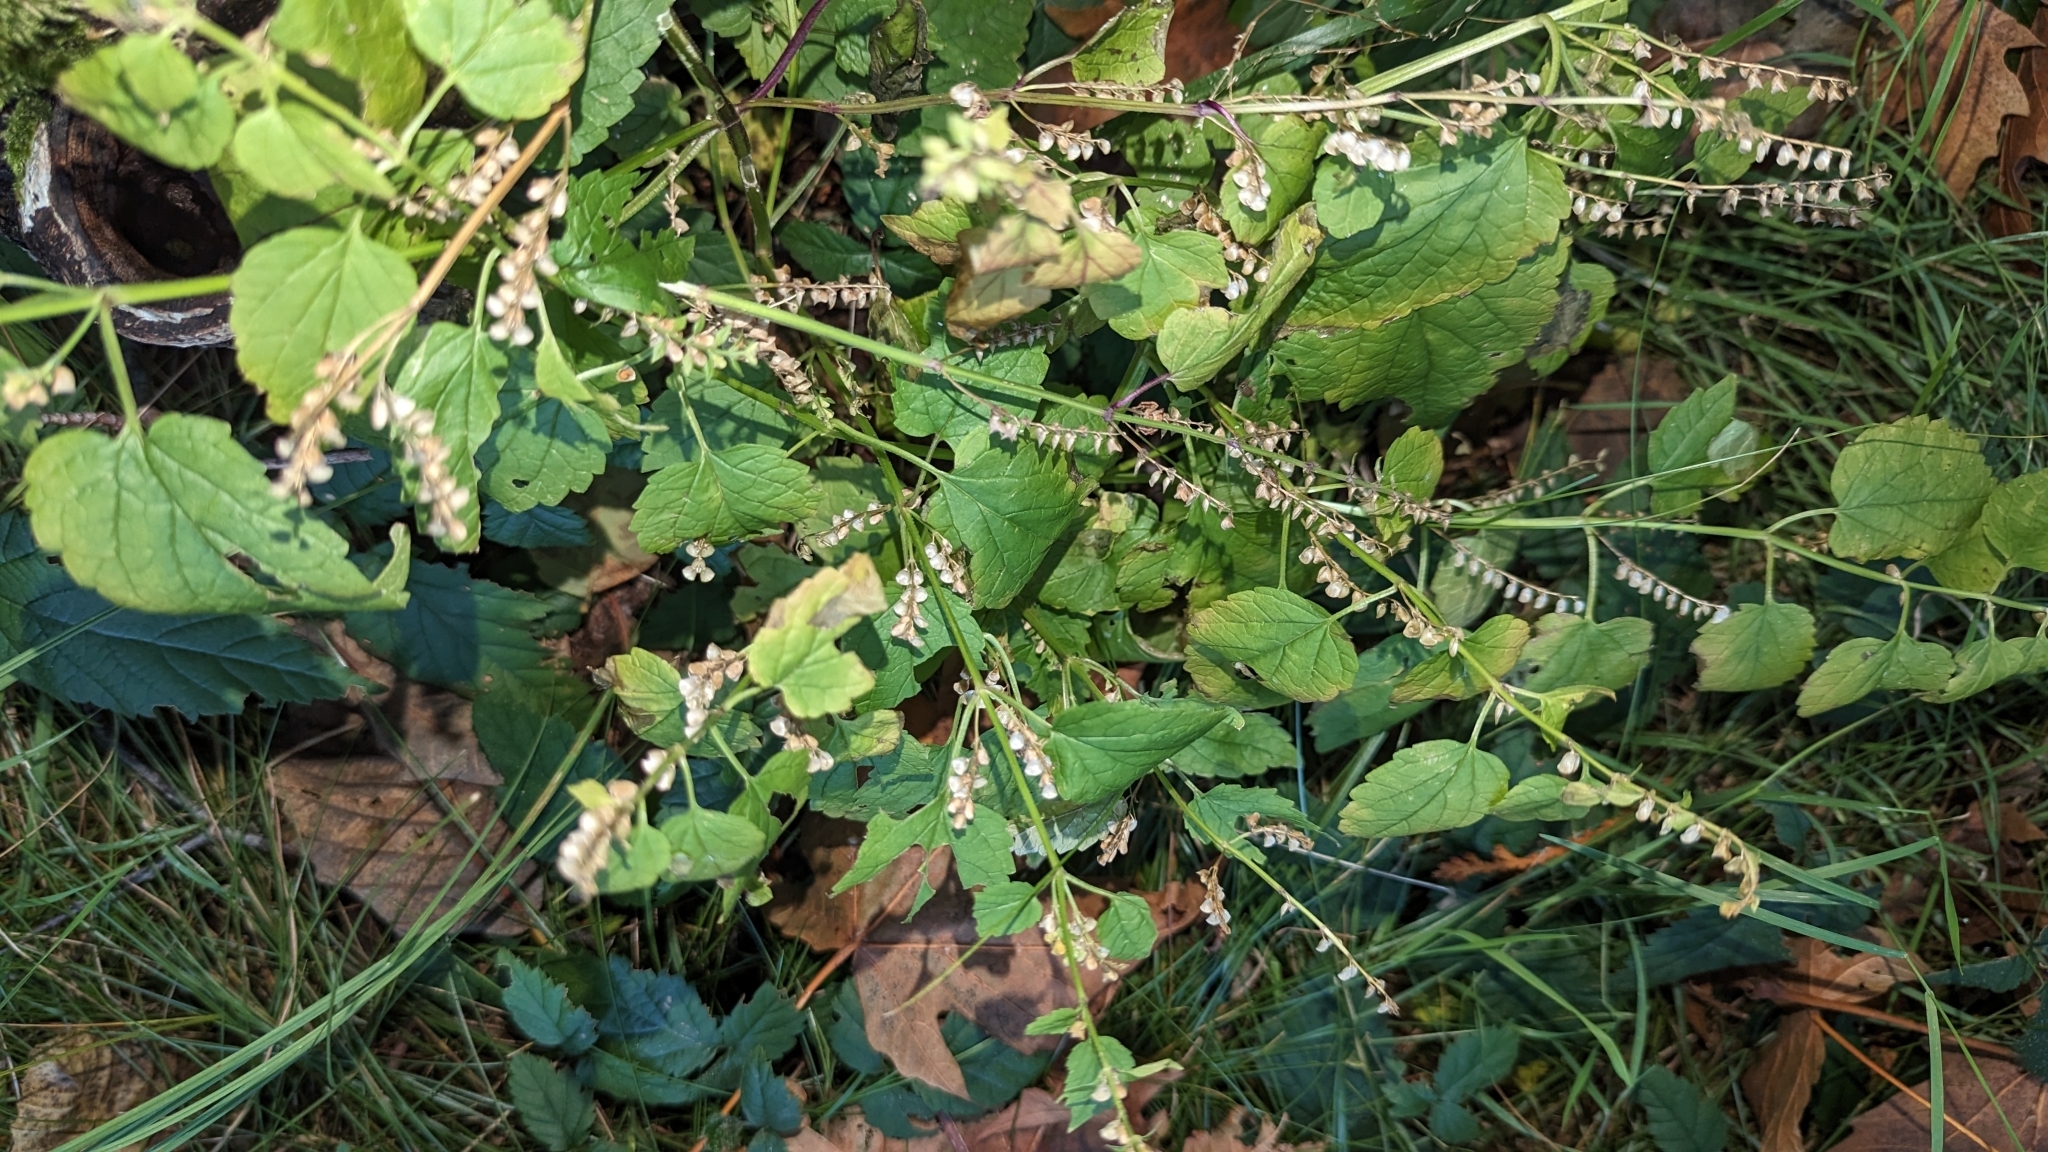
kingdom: Plantae
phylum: Tracheophyta
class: Magnoliopsida
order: Lamiales
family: Lamiaceae
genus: Scutellaria
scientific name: Scutellaria lateriflora
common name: Blue skullcap
